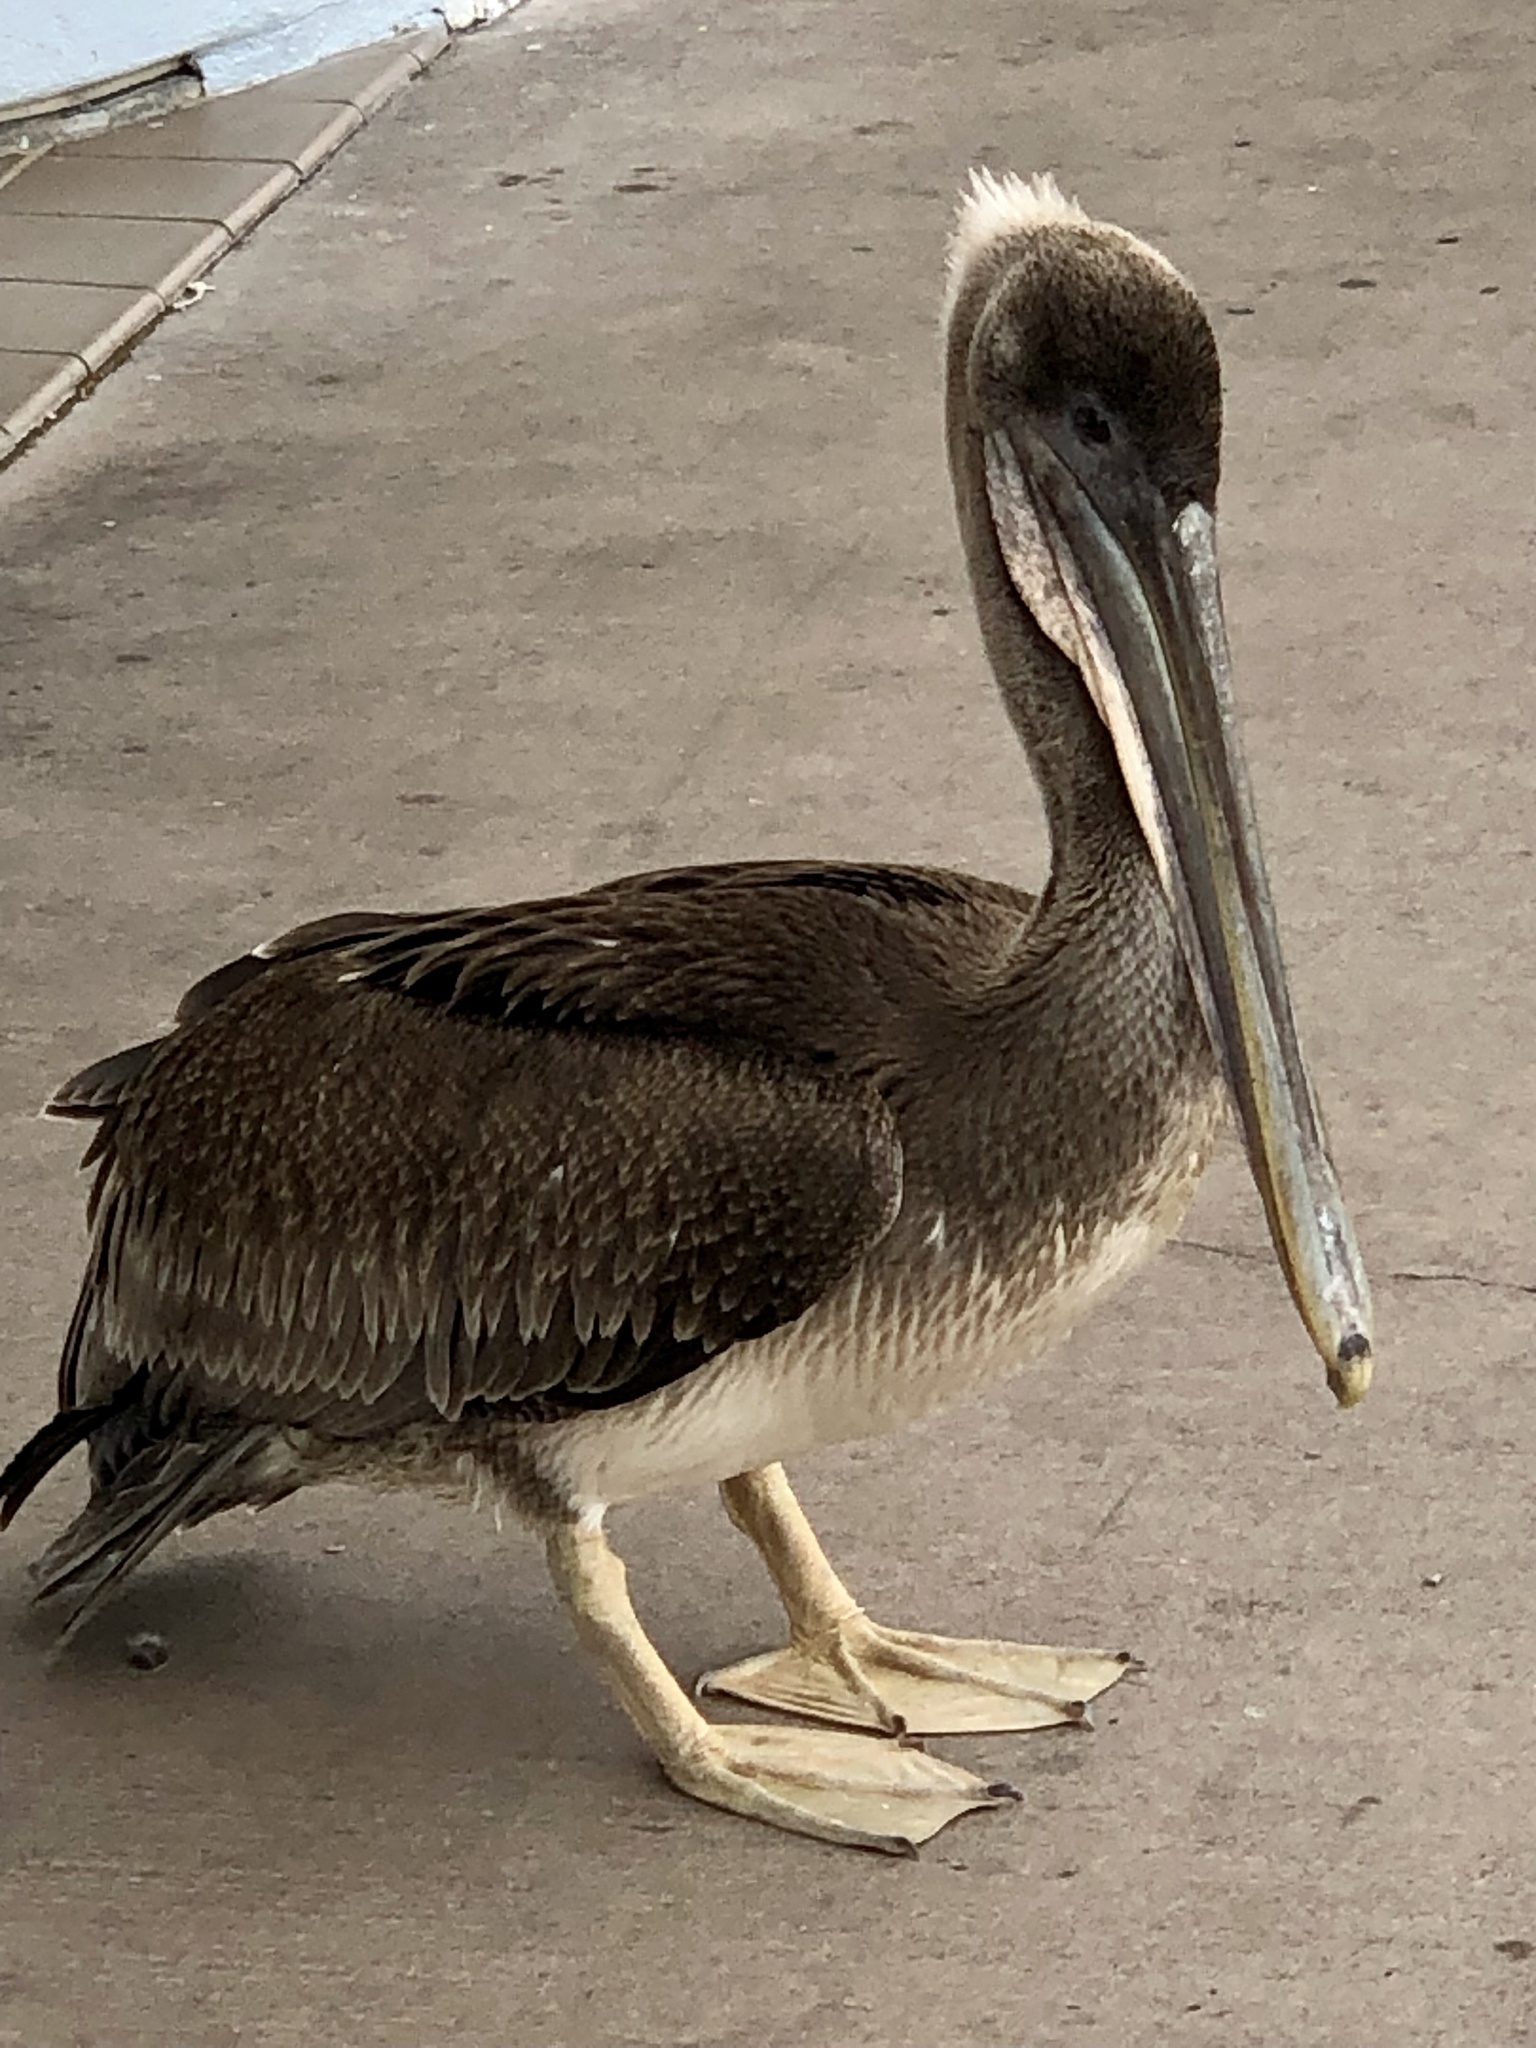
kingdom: Animalia
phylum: Chordata
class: Aves
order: Pelecaniformes
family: Pelecanidae
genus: Pelecanus
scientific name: Pelecanus occidentalis
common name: Brown pelican
